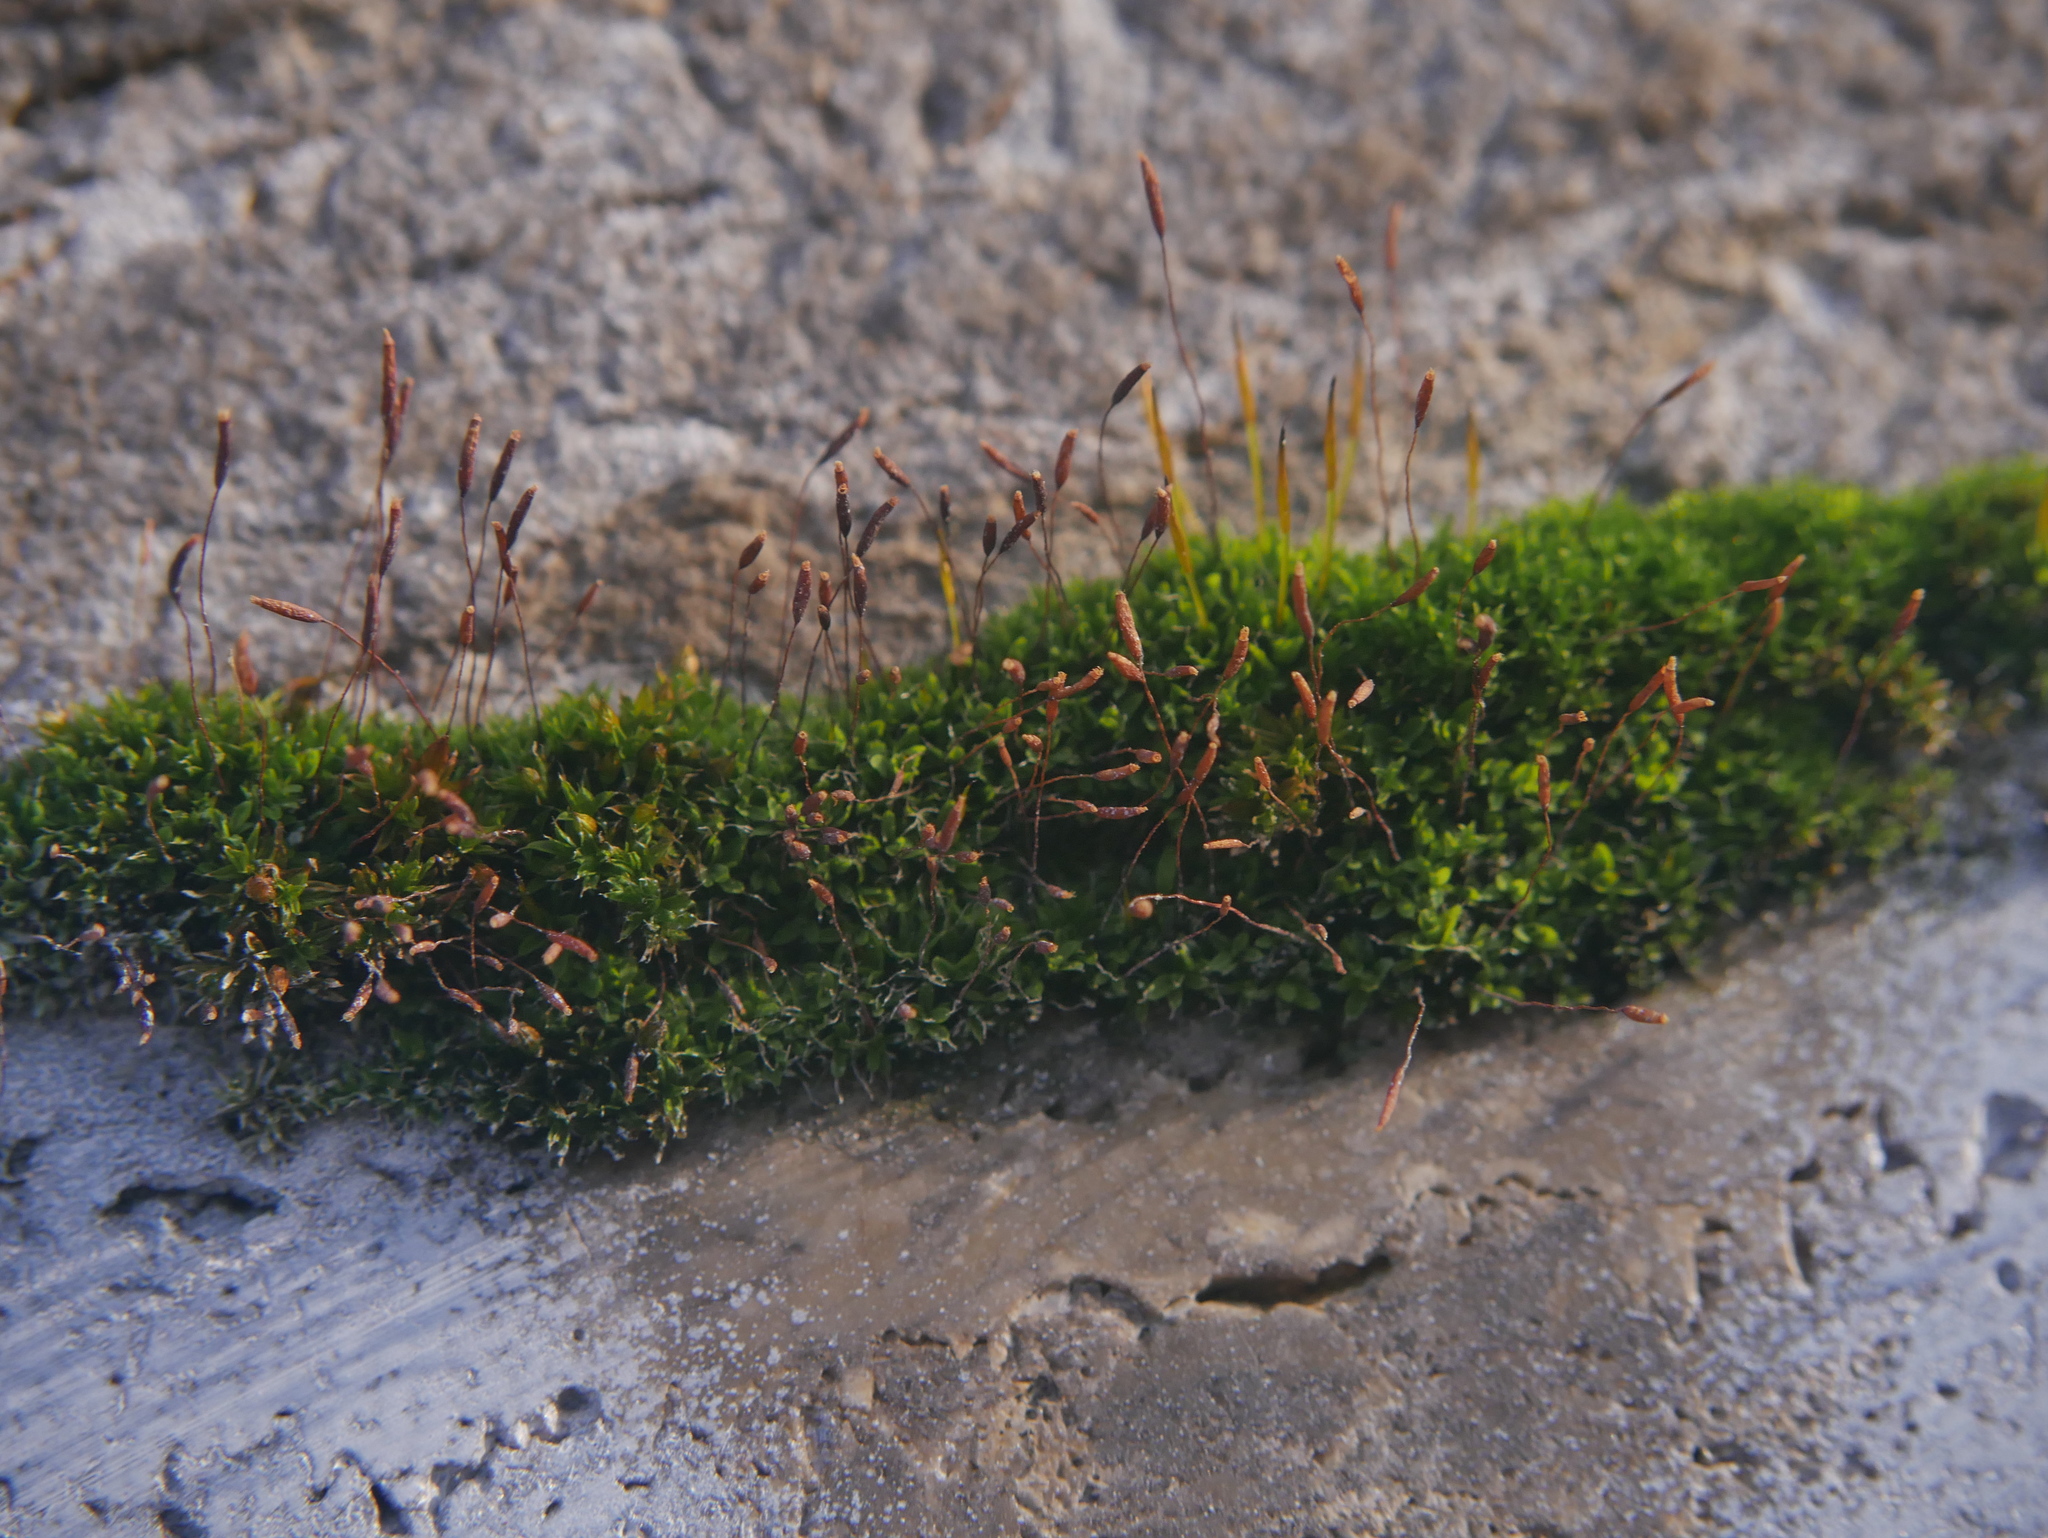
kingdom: Plantae
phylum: Bryophyta
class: Bryopsida
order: Pottiales
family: Pottiaceae
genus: Tortula
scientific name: Tortula muralis
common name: Wall screw-moss
